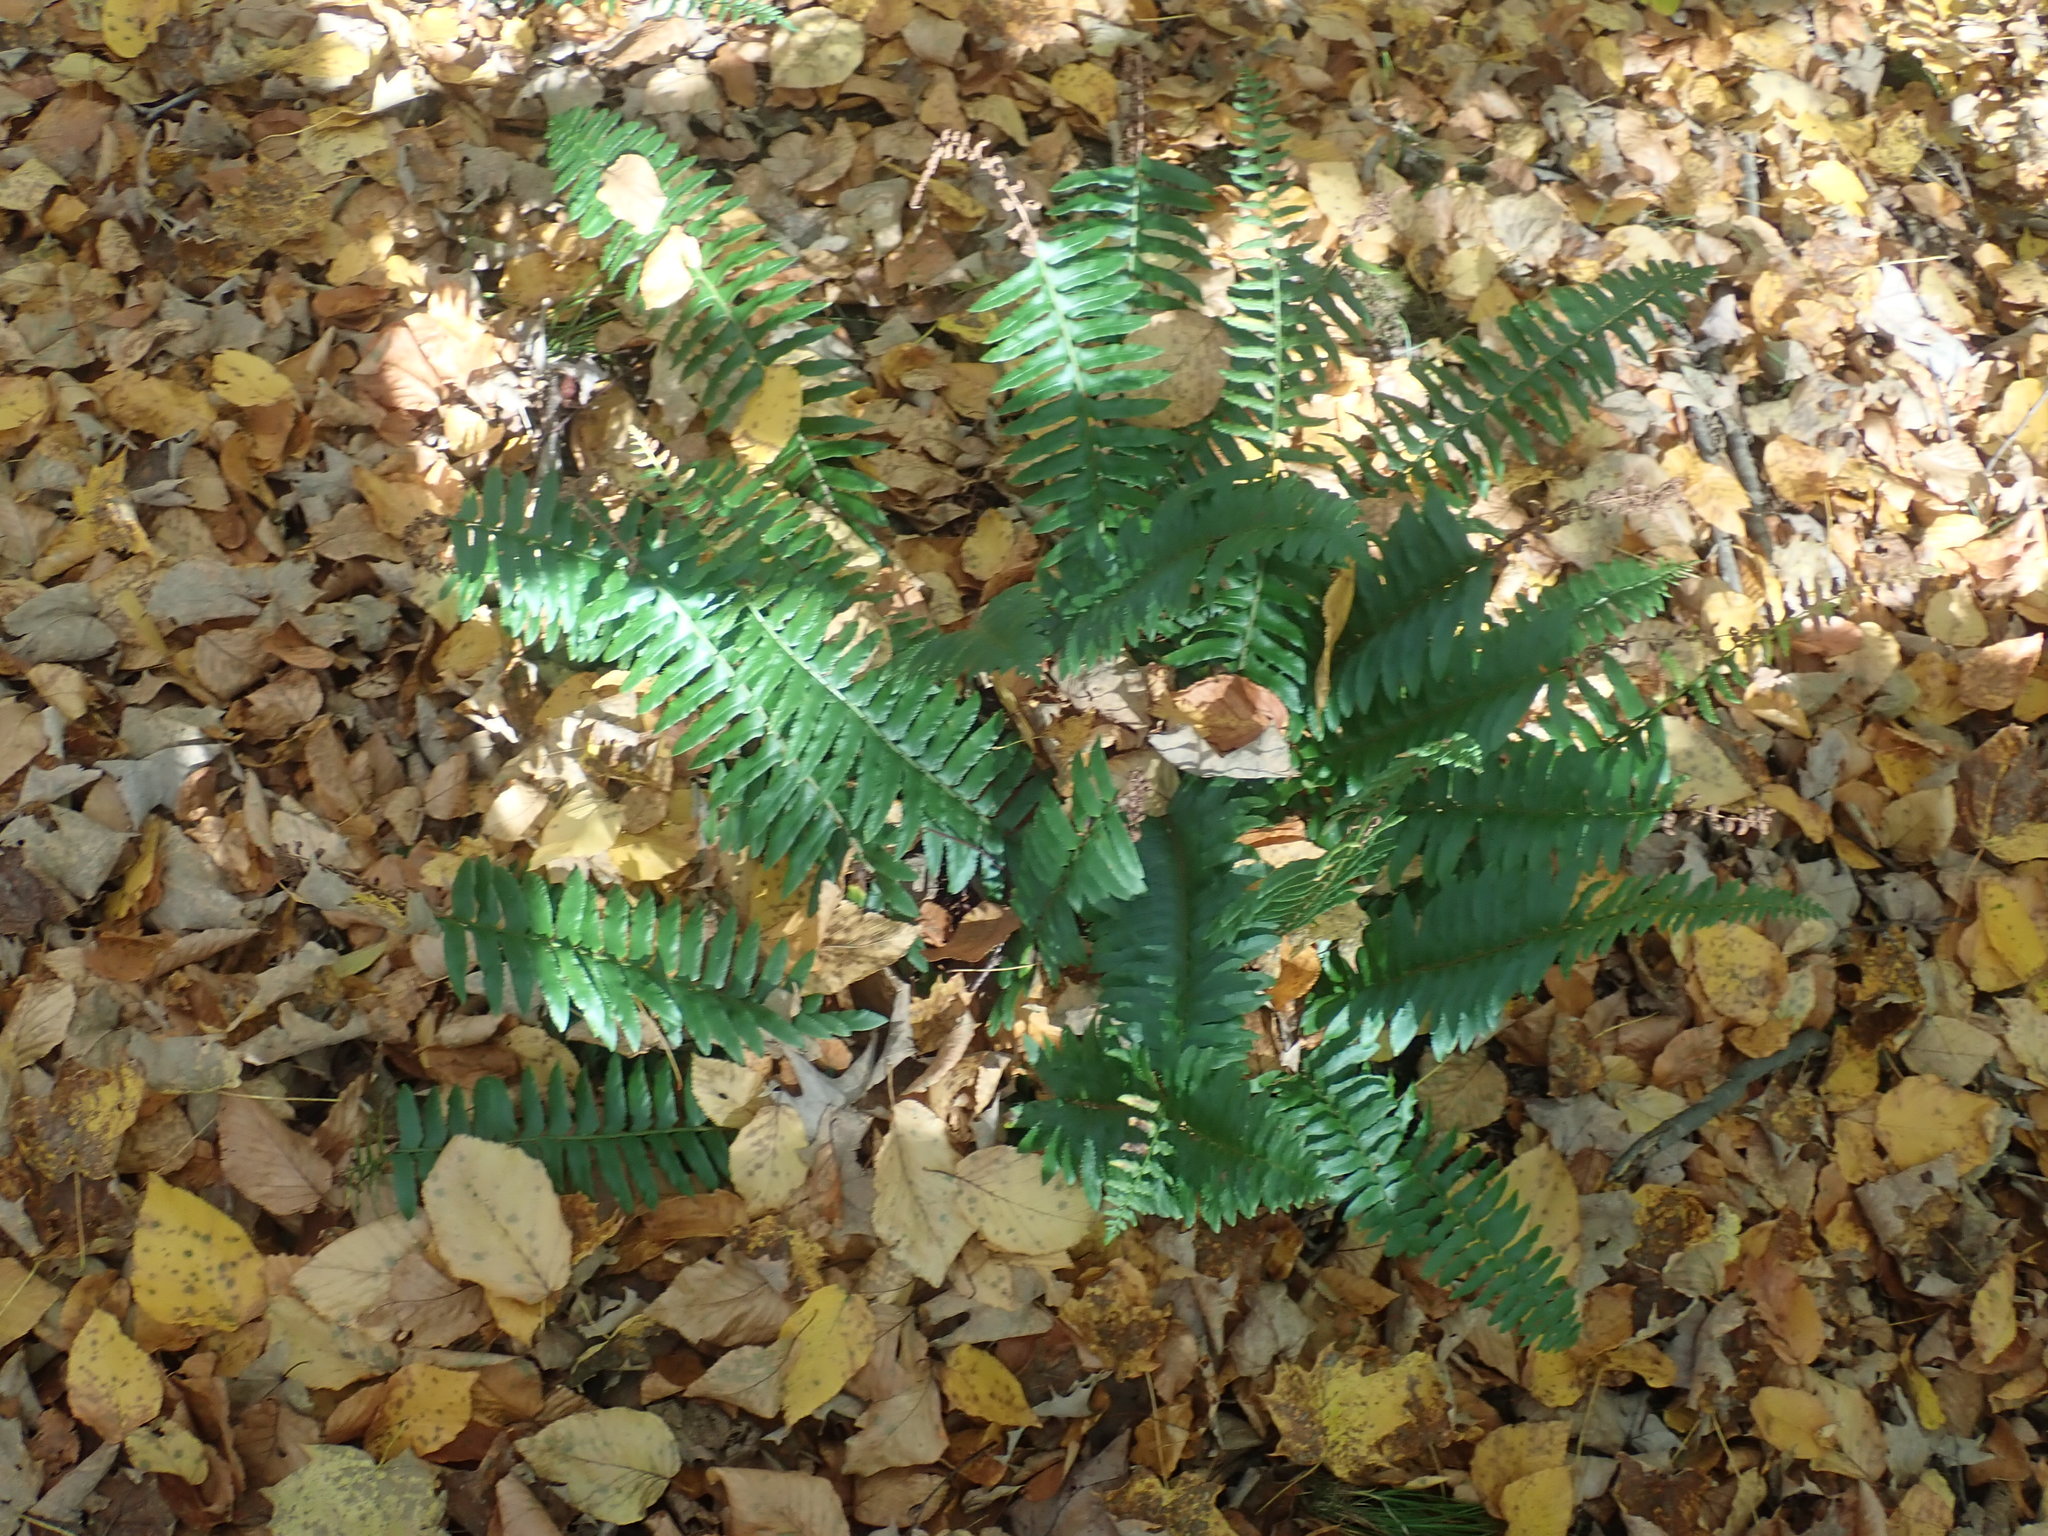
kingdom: Plantae
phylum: Tracheophyta
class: Polypodiopsida
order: Polypodiales
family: Dryopteridaceae
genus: Polystichum
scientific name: Polystichum acrostichoides
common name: Christmas fern
